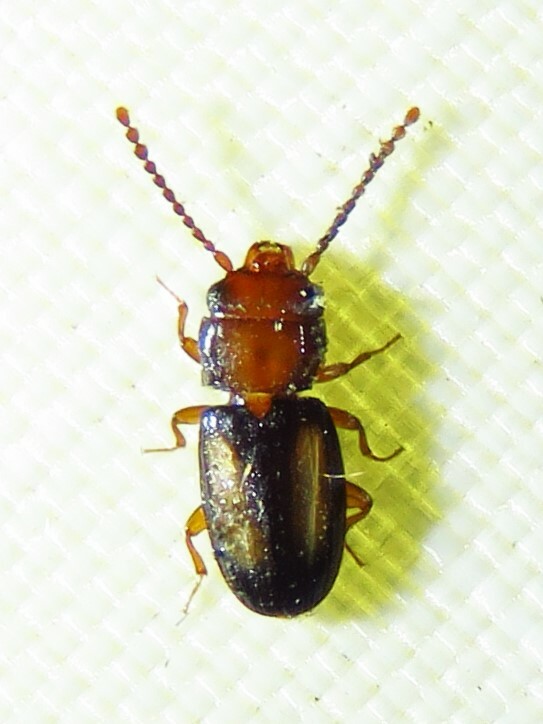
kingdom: Animalia
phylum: Arthropoda
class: Insecta
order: Coleoptera
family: Laemophloeidae
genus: Laemophloeus
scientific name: Laemophloeus terminalis
